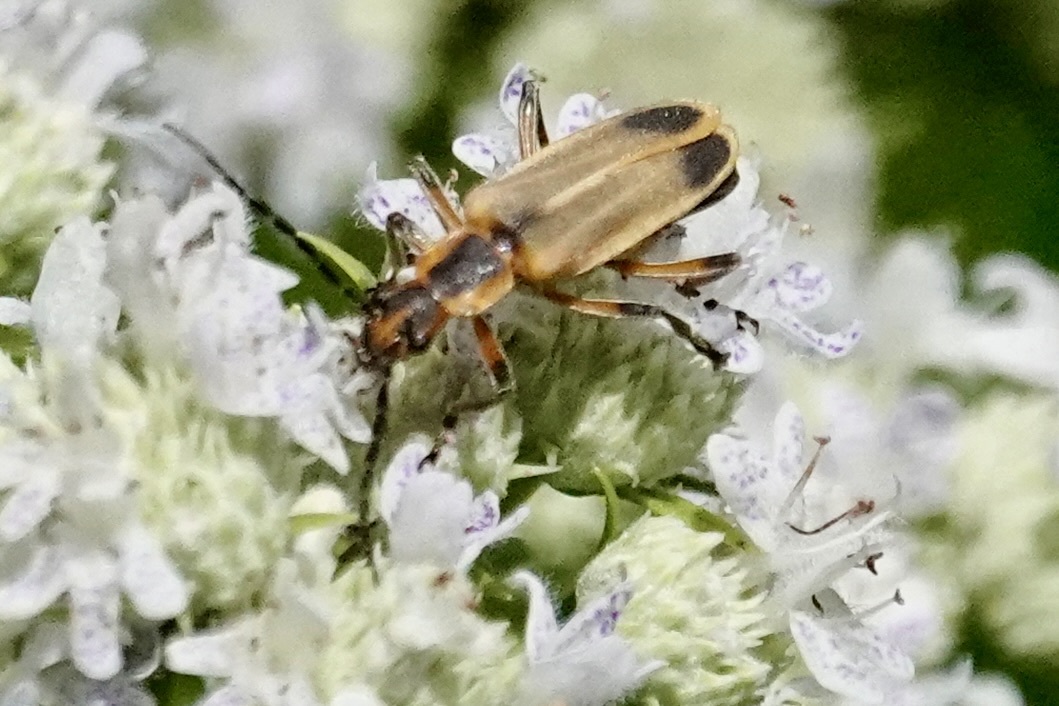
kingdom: Animalia
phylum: Arthropoda
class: Insecta
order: Coleoptera
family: Cantharidae
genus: Chauliognathus
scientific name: Chauliognathus marginatus
